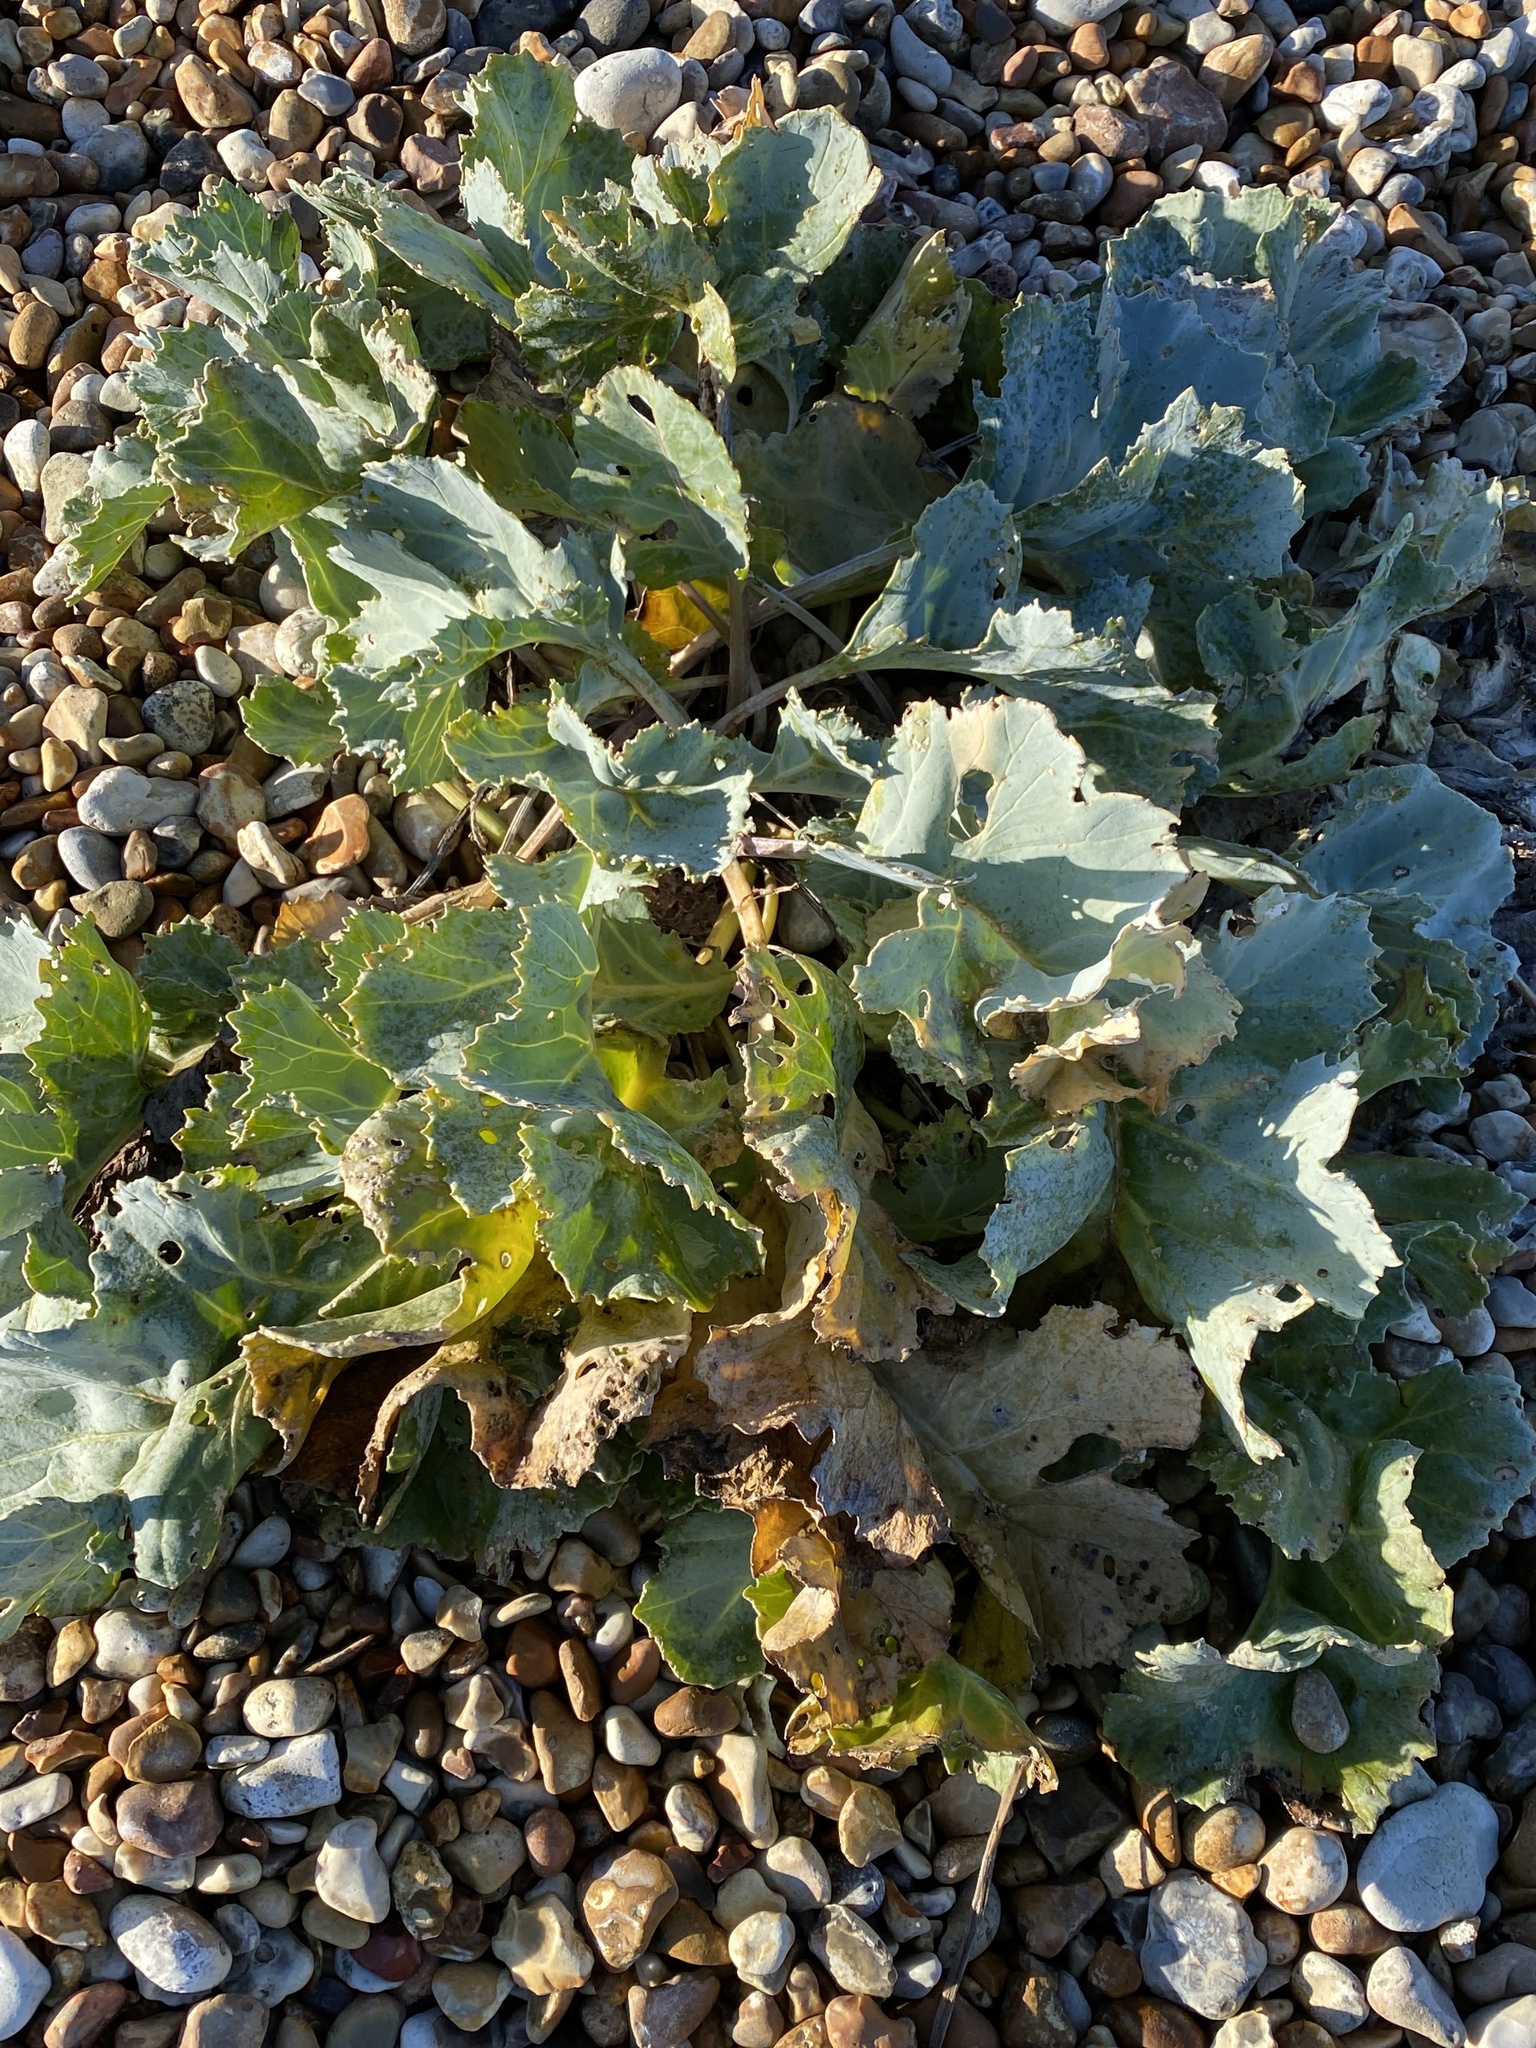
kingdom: Plantae
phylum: Tracheophyta
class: Magnoliopsida
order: Brassicales
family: Brassicaceae
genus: Crambe
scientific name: Crambe maritima
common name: Sea-kale
